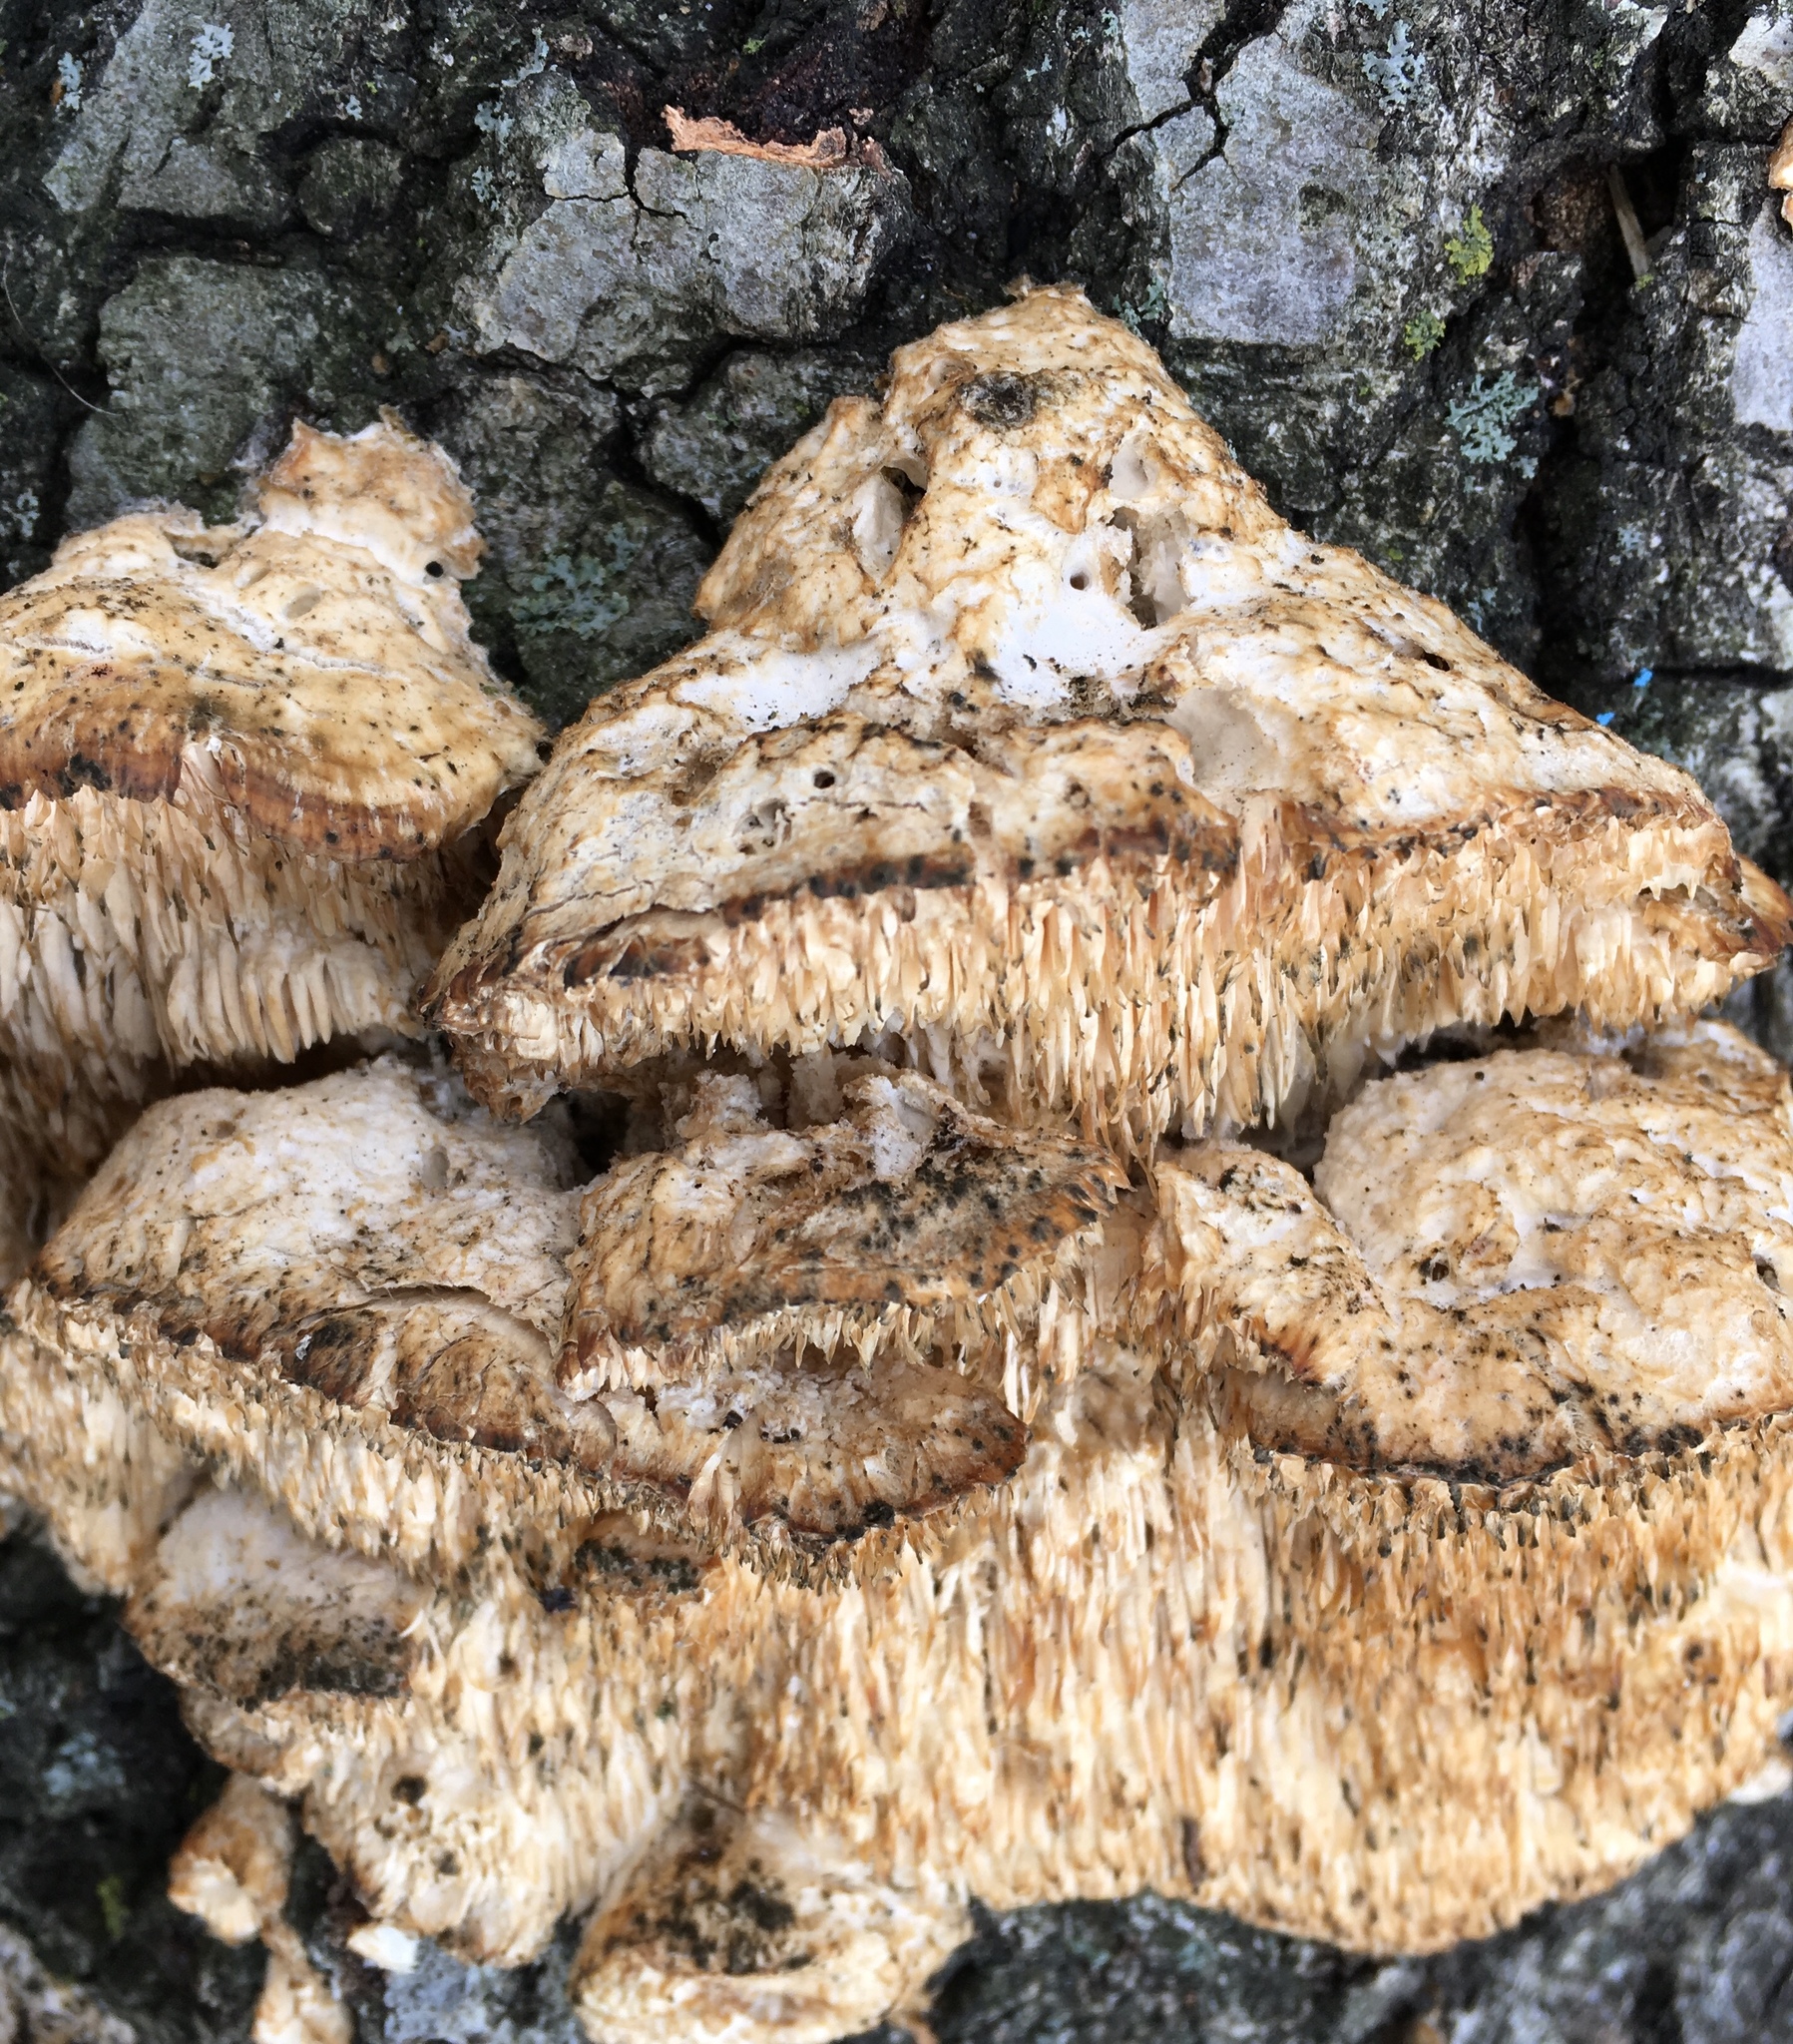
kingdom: Fungi
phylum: Basidiomycota
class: Agaricomycetes
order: Polyporales
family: Meruliaceae
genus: Irpiciporus
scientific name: Irpiciporus pachyodon
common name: Marshmallow polypore
